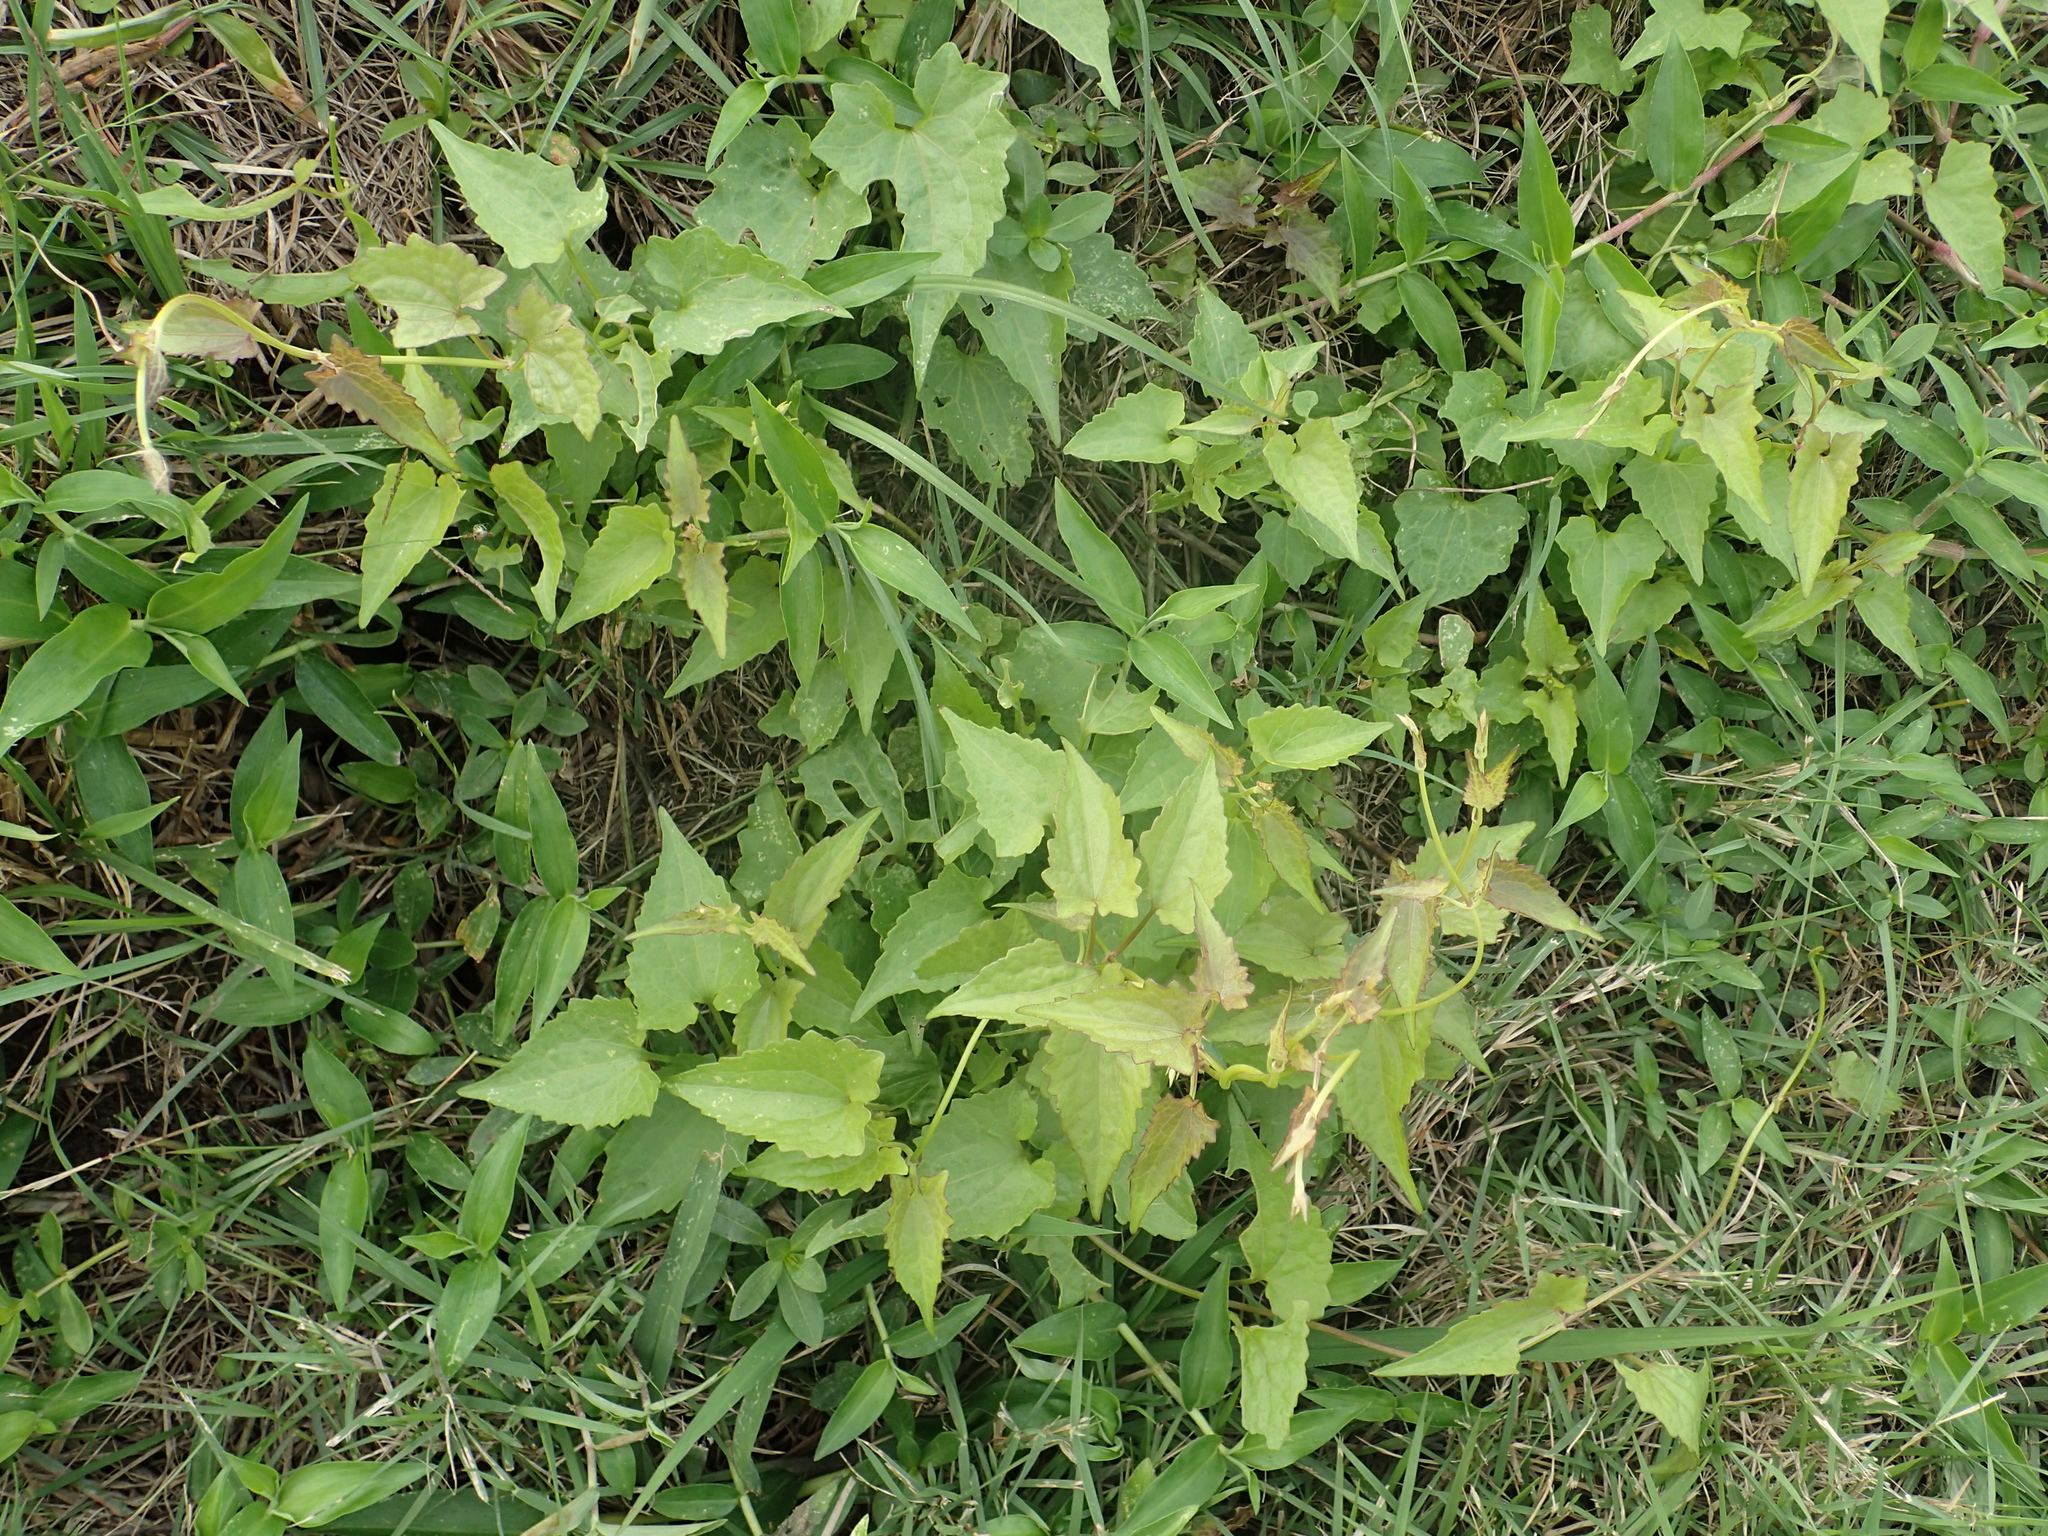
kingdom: Plantae
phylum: Tracheophyta
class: Magnoliopsida
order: Asterales
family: Asteraceae
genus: Mikania
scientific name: Mikania micrantha
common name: Mile-a-minute
